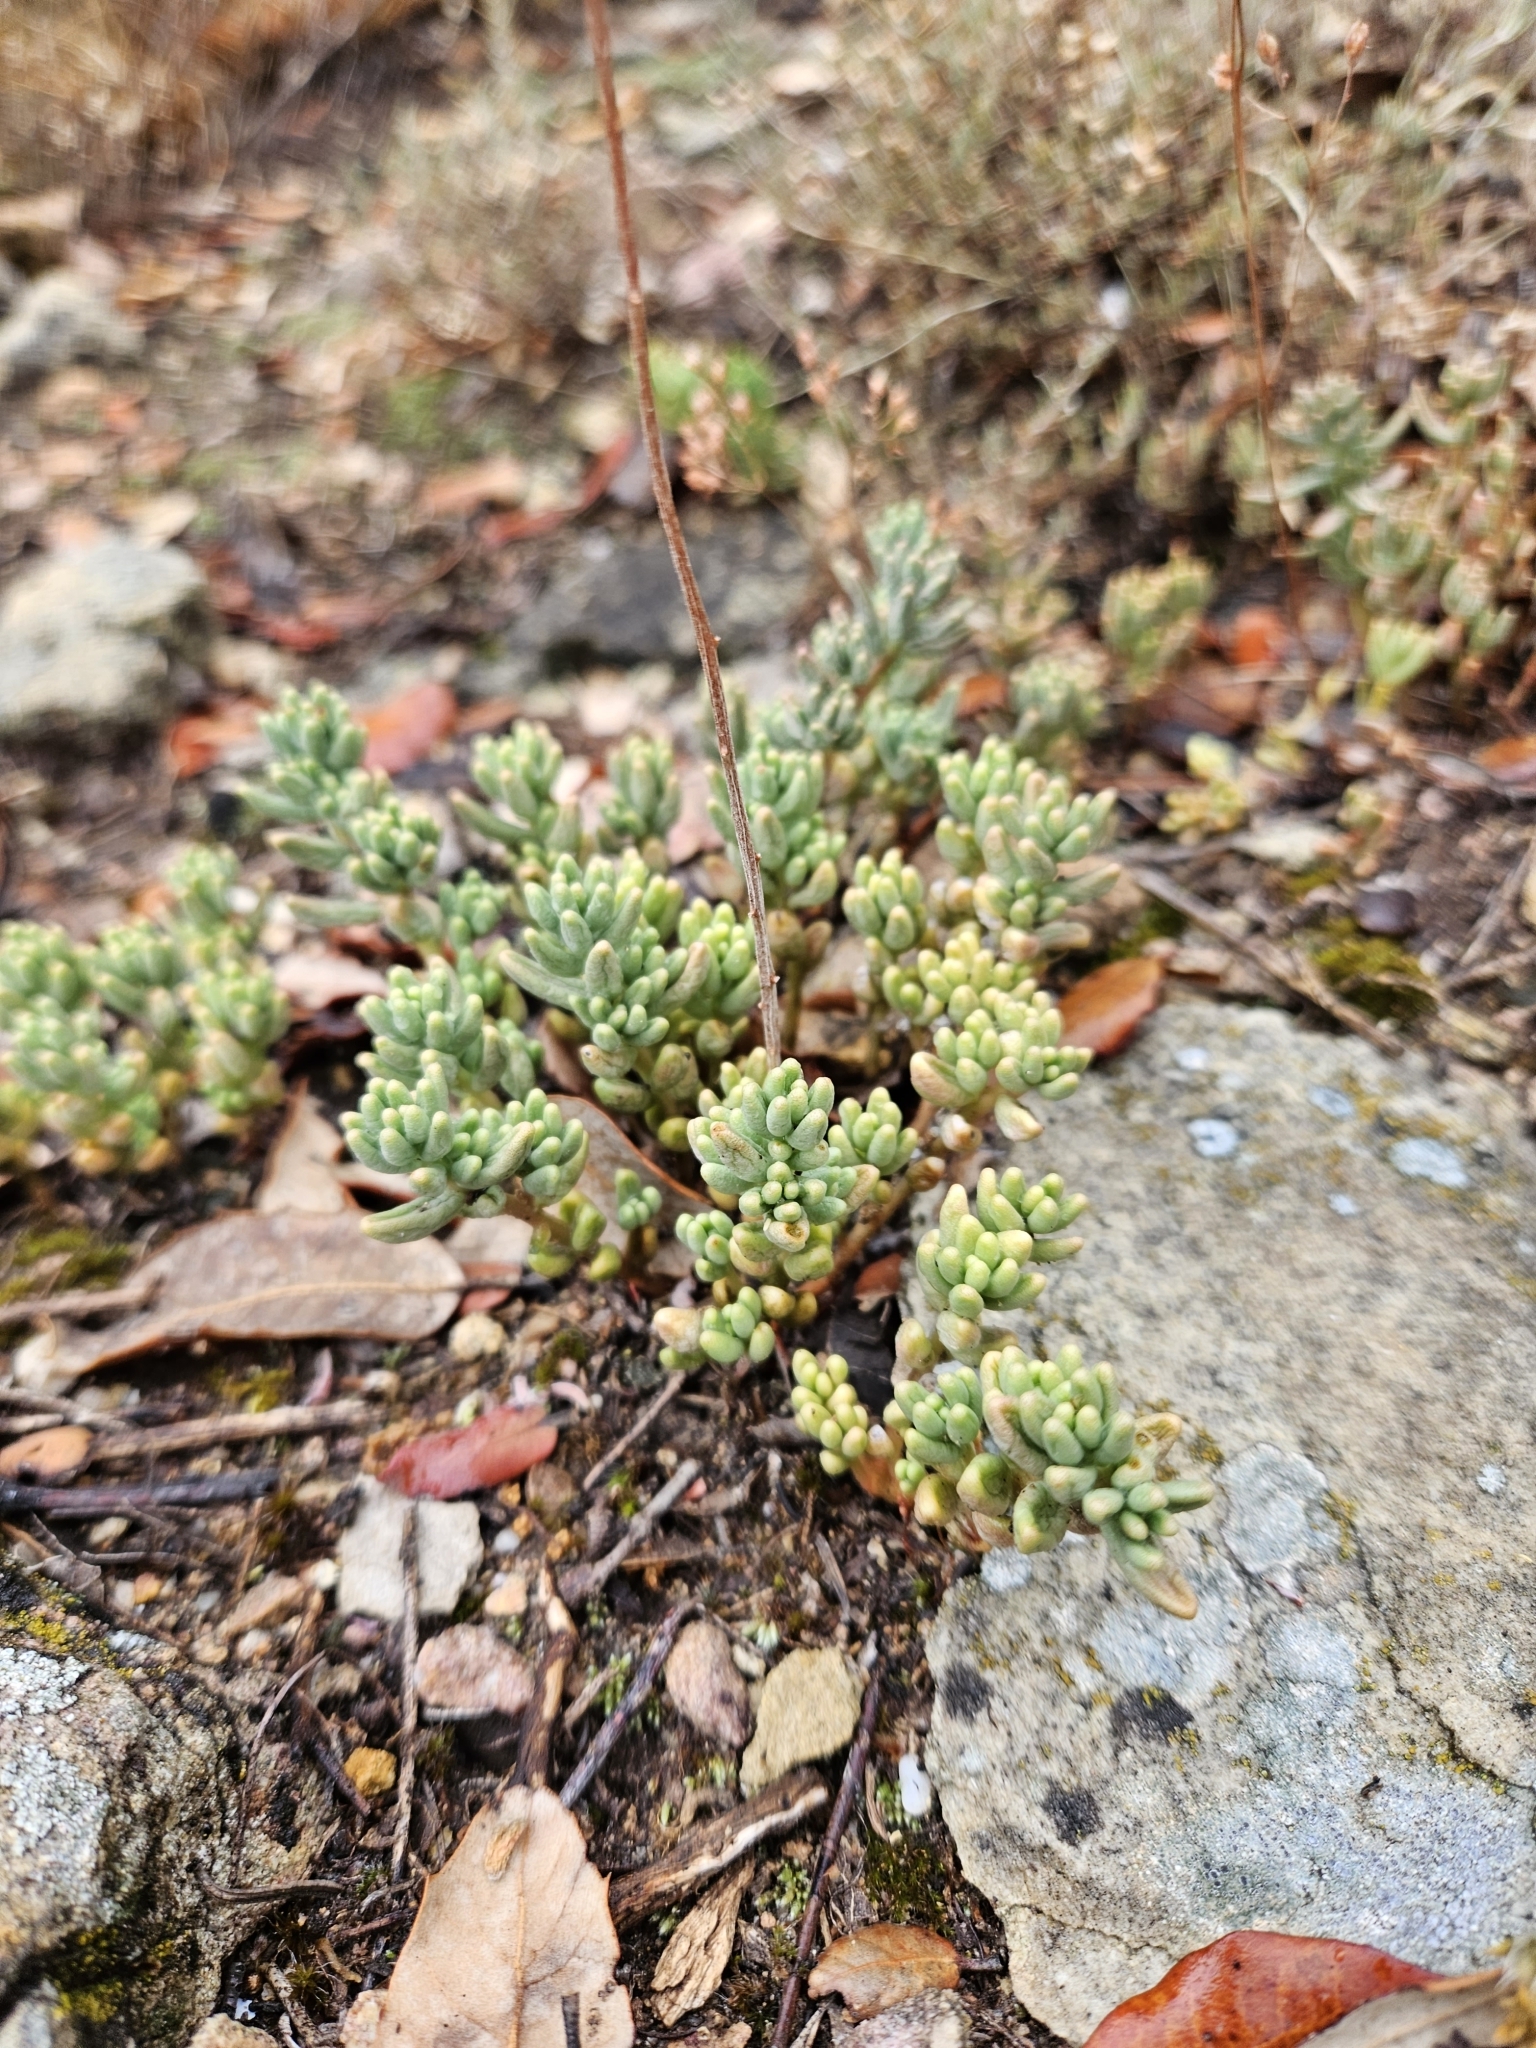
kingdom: Plantae
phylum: Tracheophyta
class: Magnoliopsida
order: Saxifragales
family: Crassulaceae
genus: Sedum
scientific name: Sedum album
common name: White stonecrop
